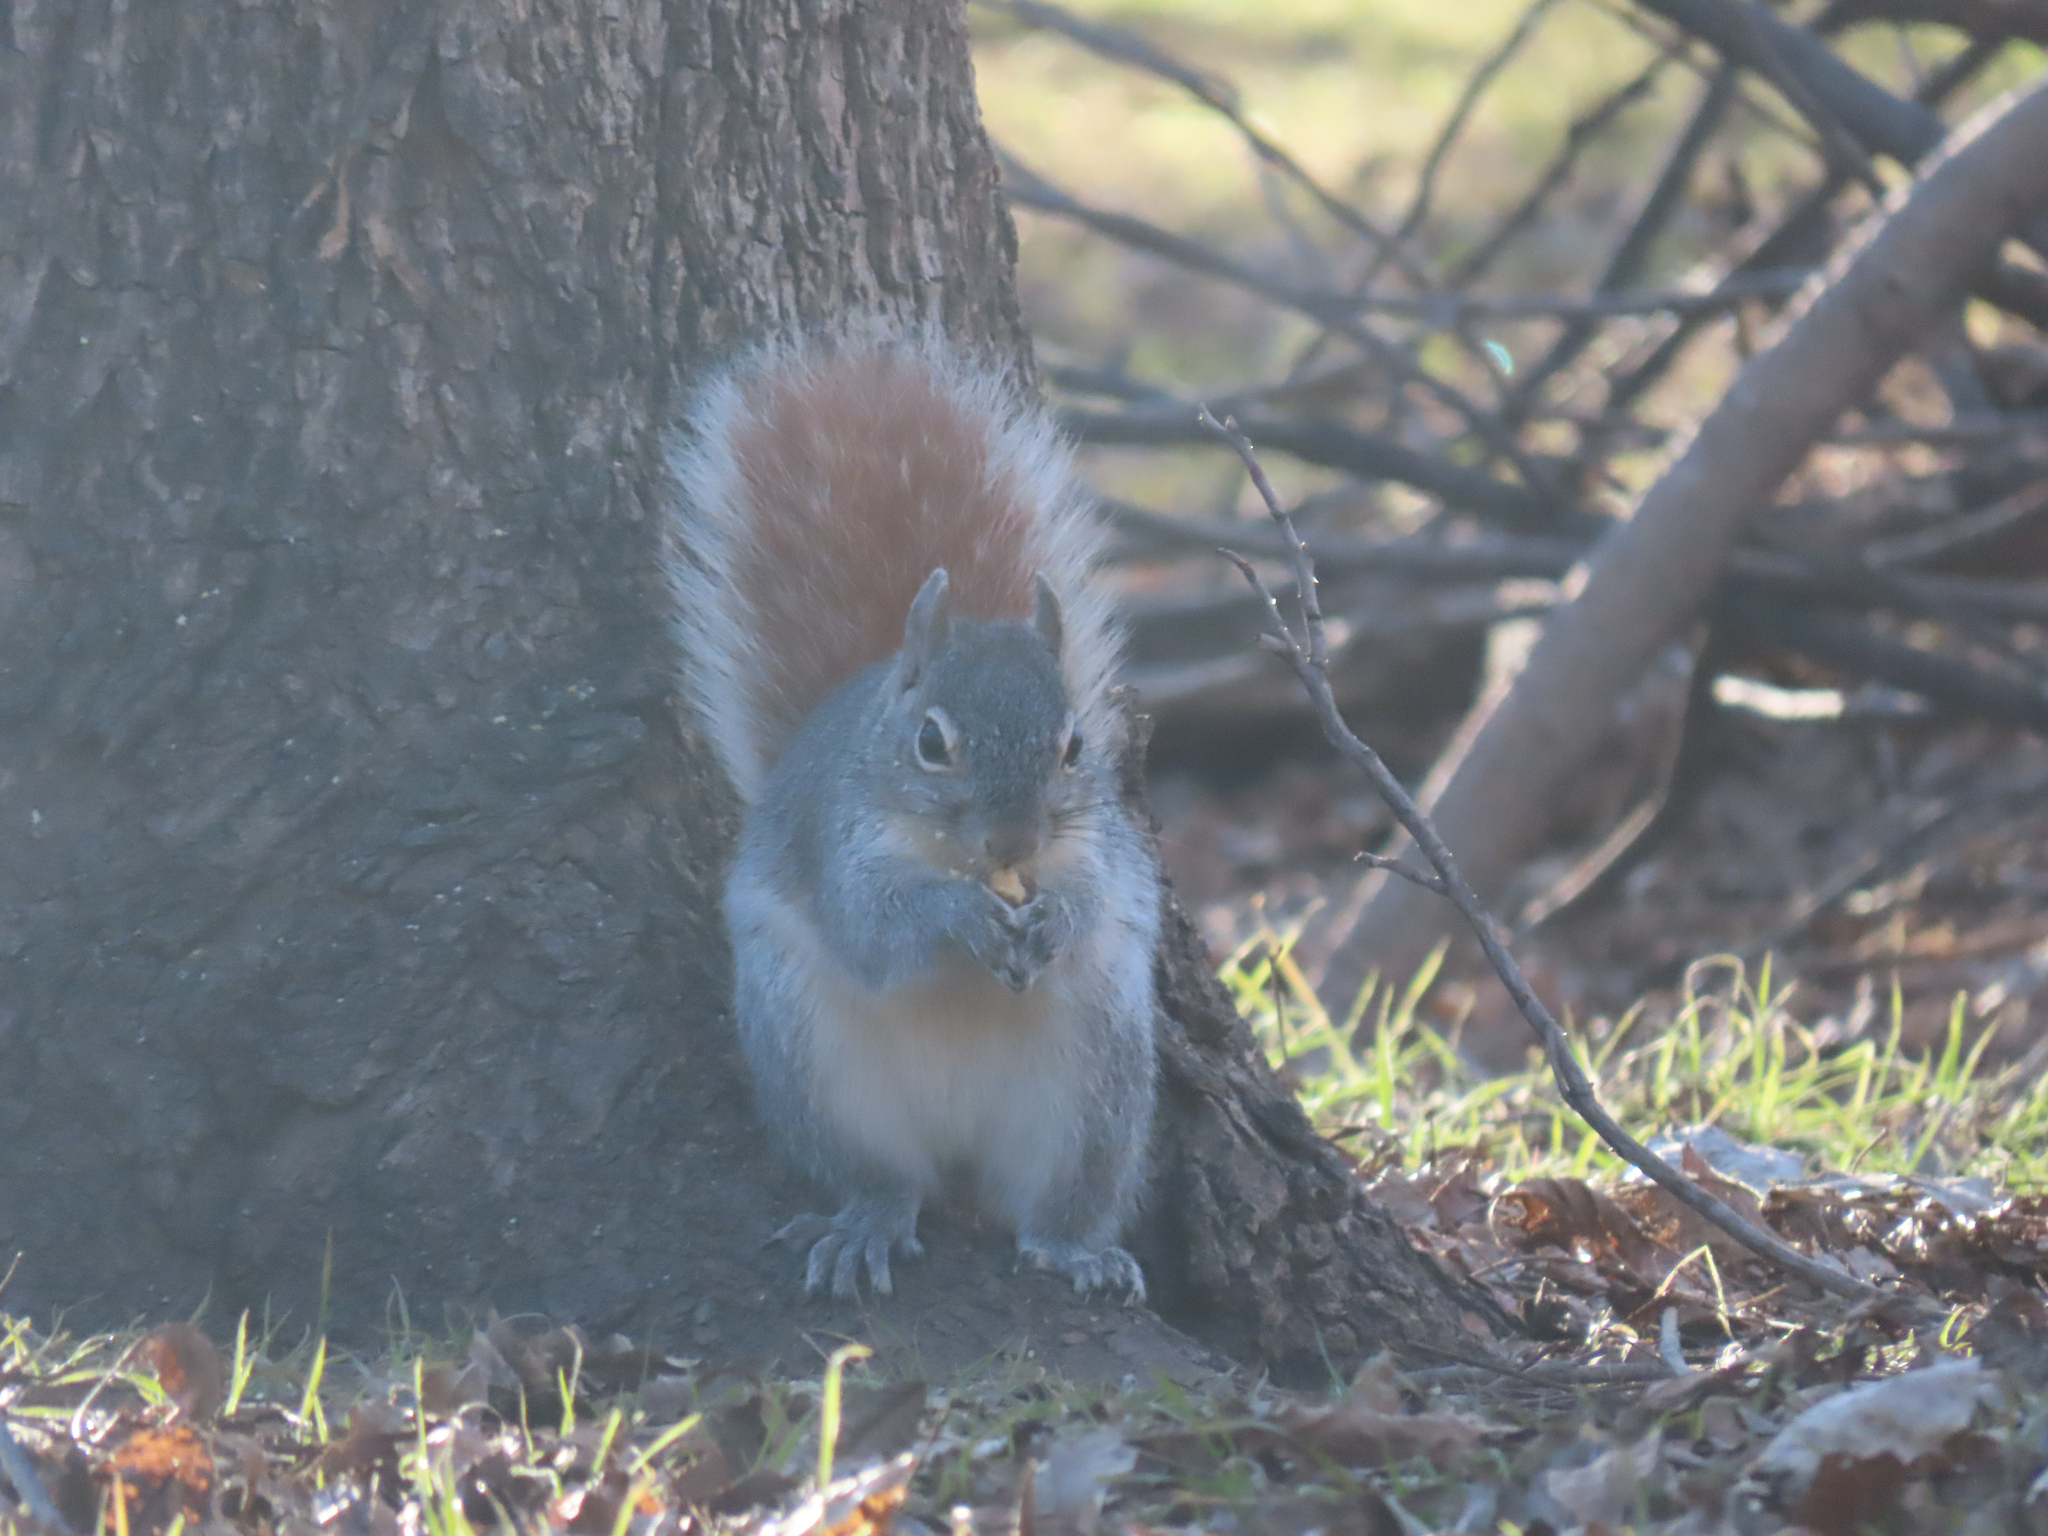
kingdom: Animalia
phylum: Chordata
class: Mammalia
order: Rodentia
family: Sciuridae
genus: Sciurus
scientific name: Sciurus arizonensis
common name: Arizona gray squirrel
